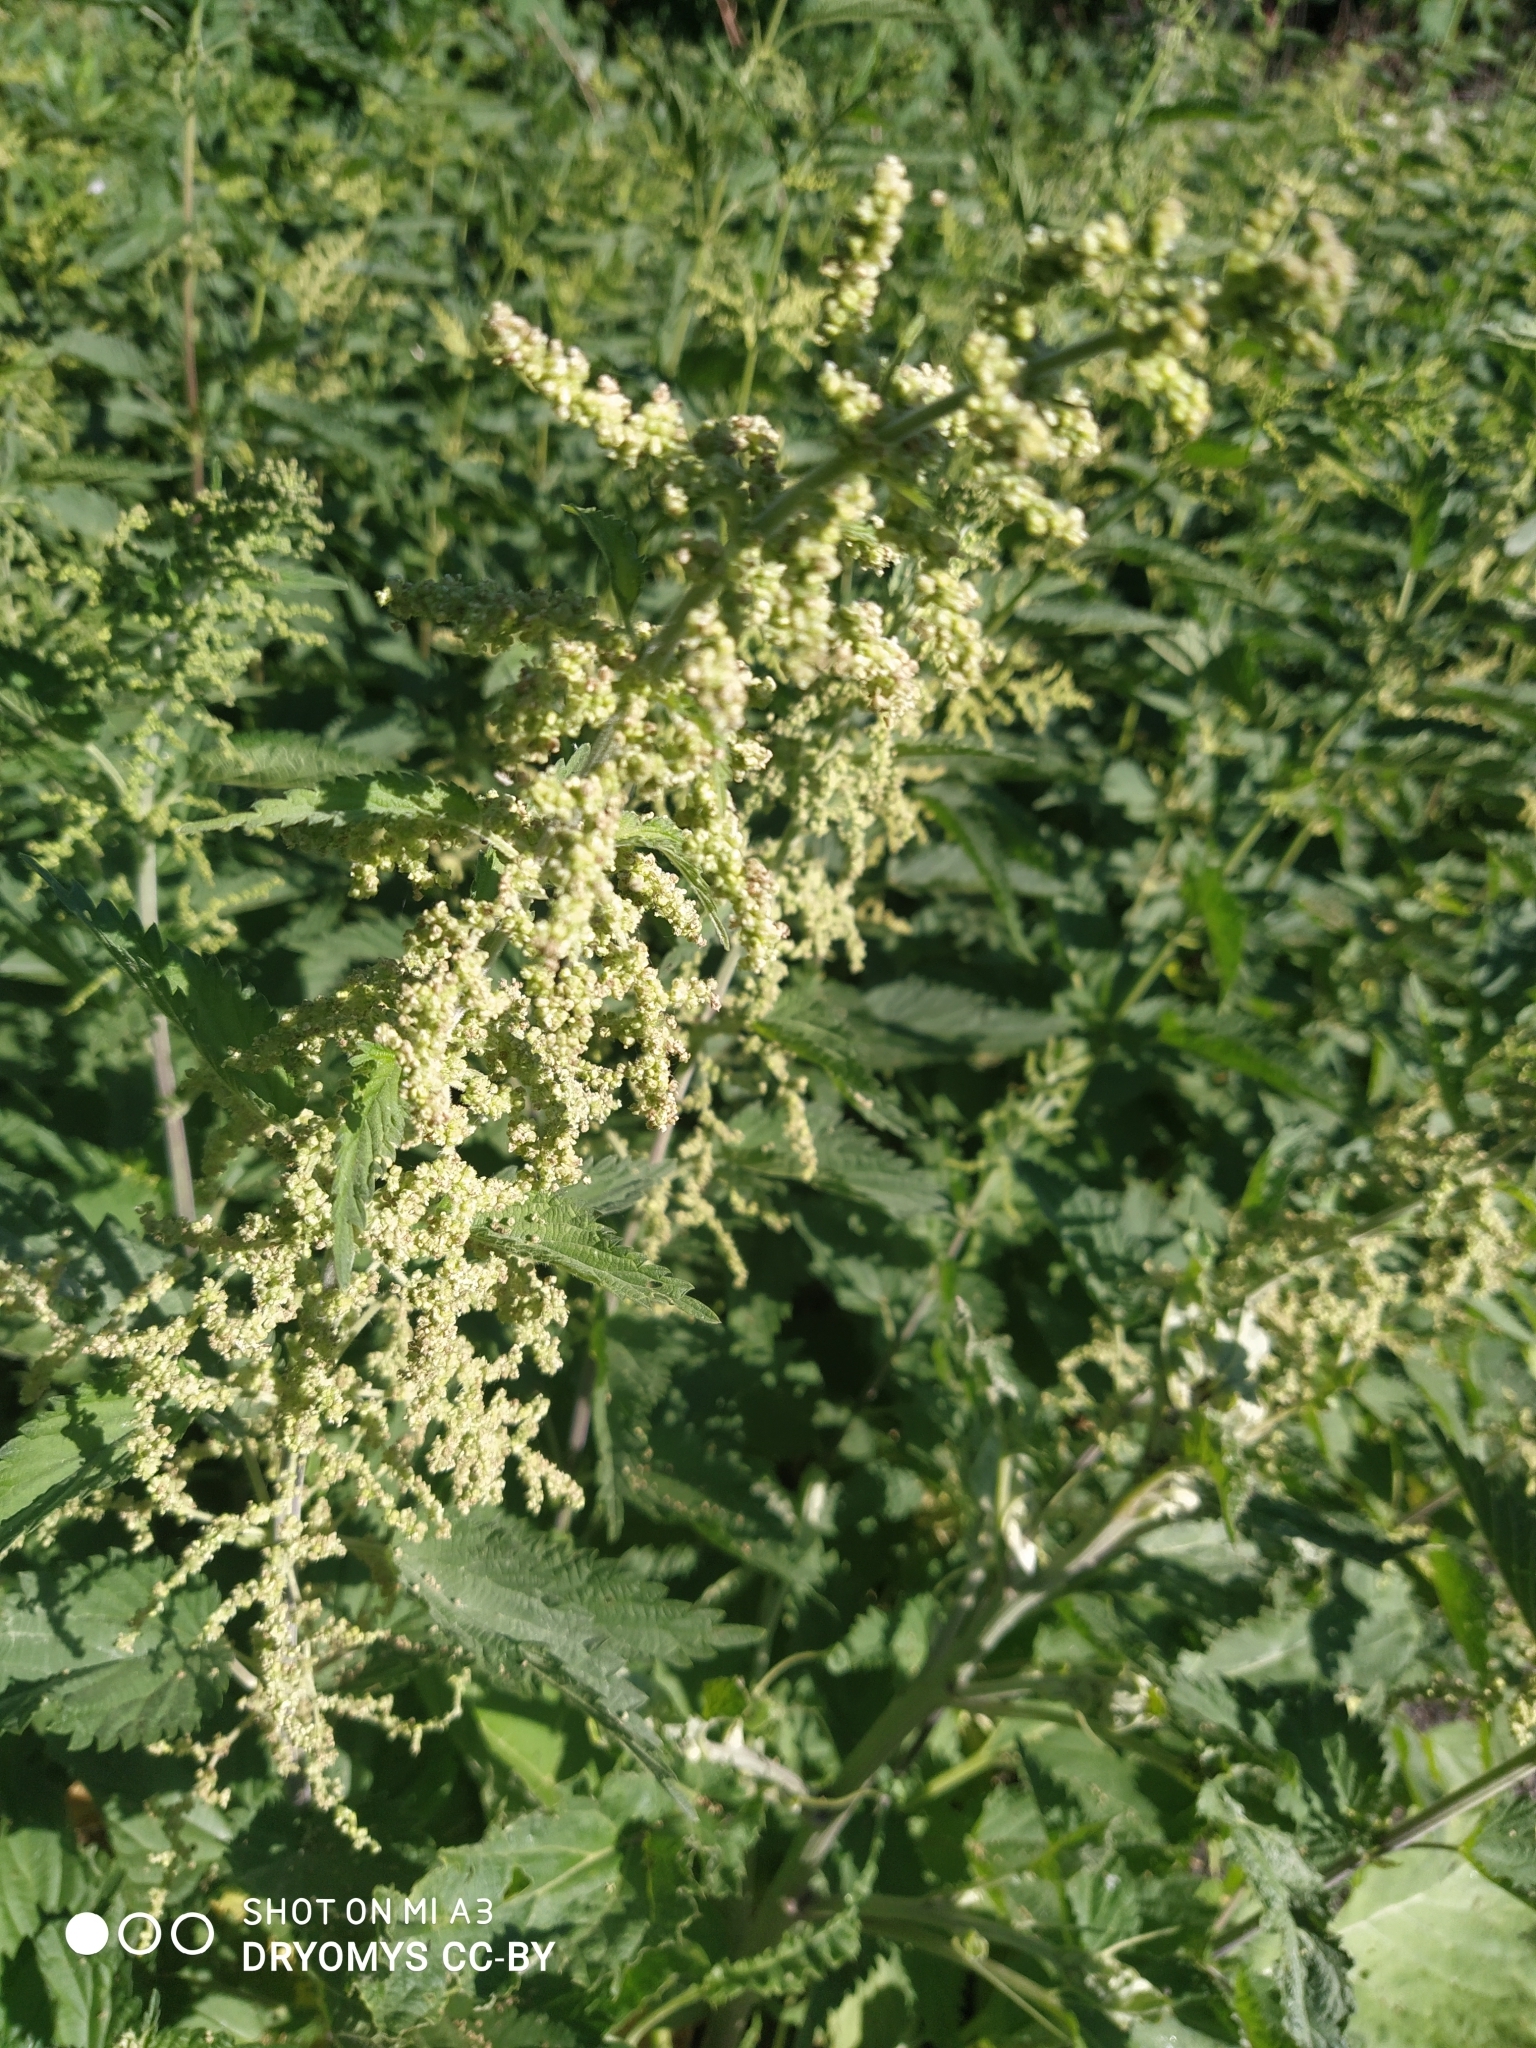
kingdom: Plantae
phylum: Tracheophyta
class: Magnoliopsida
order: Rosales
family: Urticaceae
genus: Urtica
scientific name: Urtica dioica
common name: Common nettle
